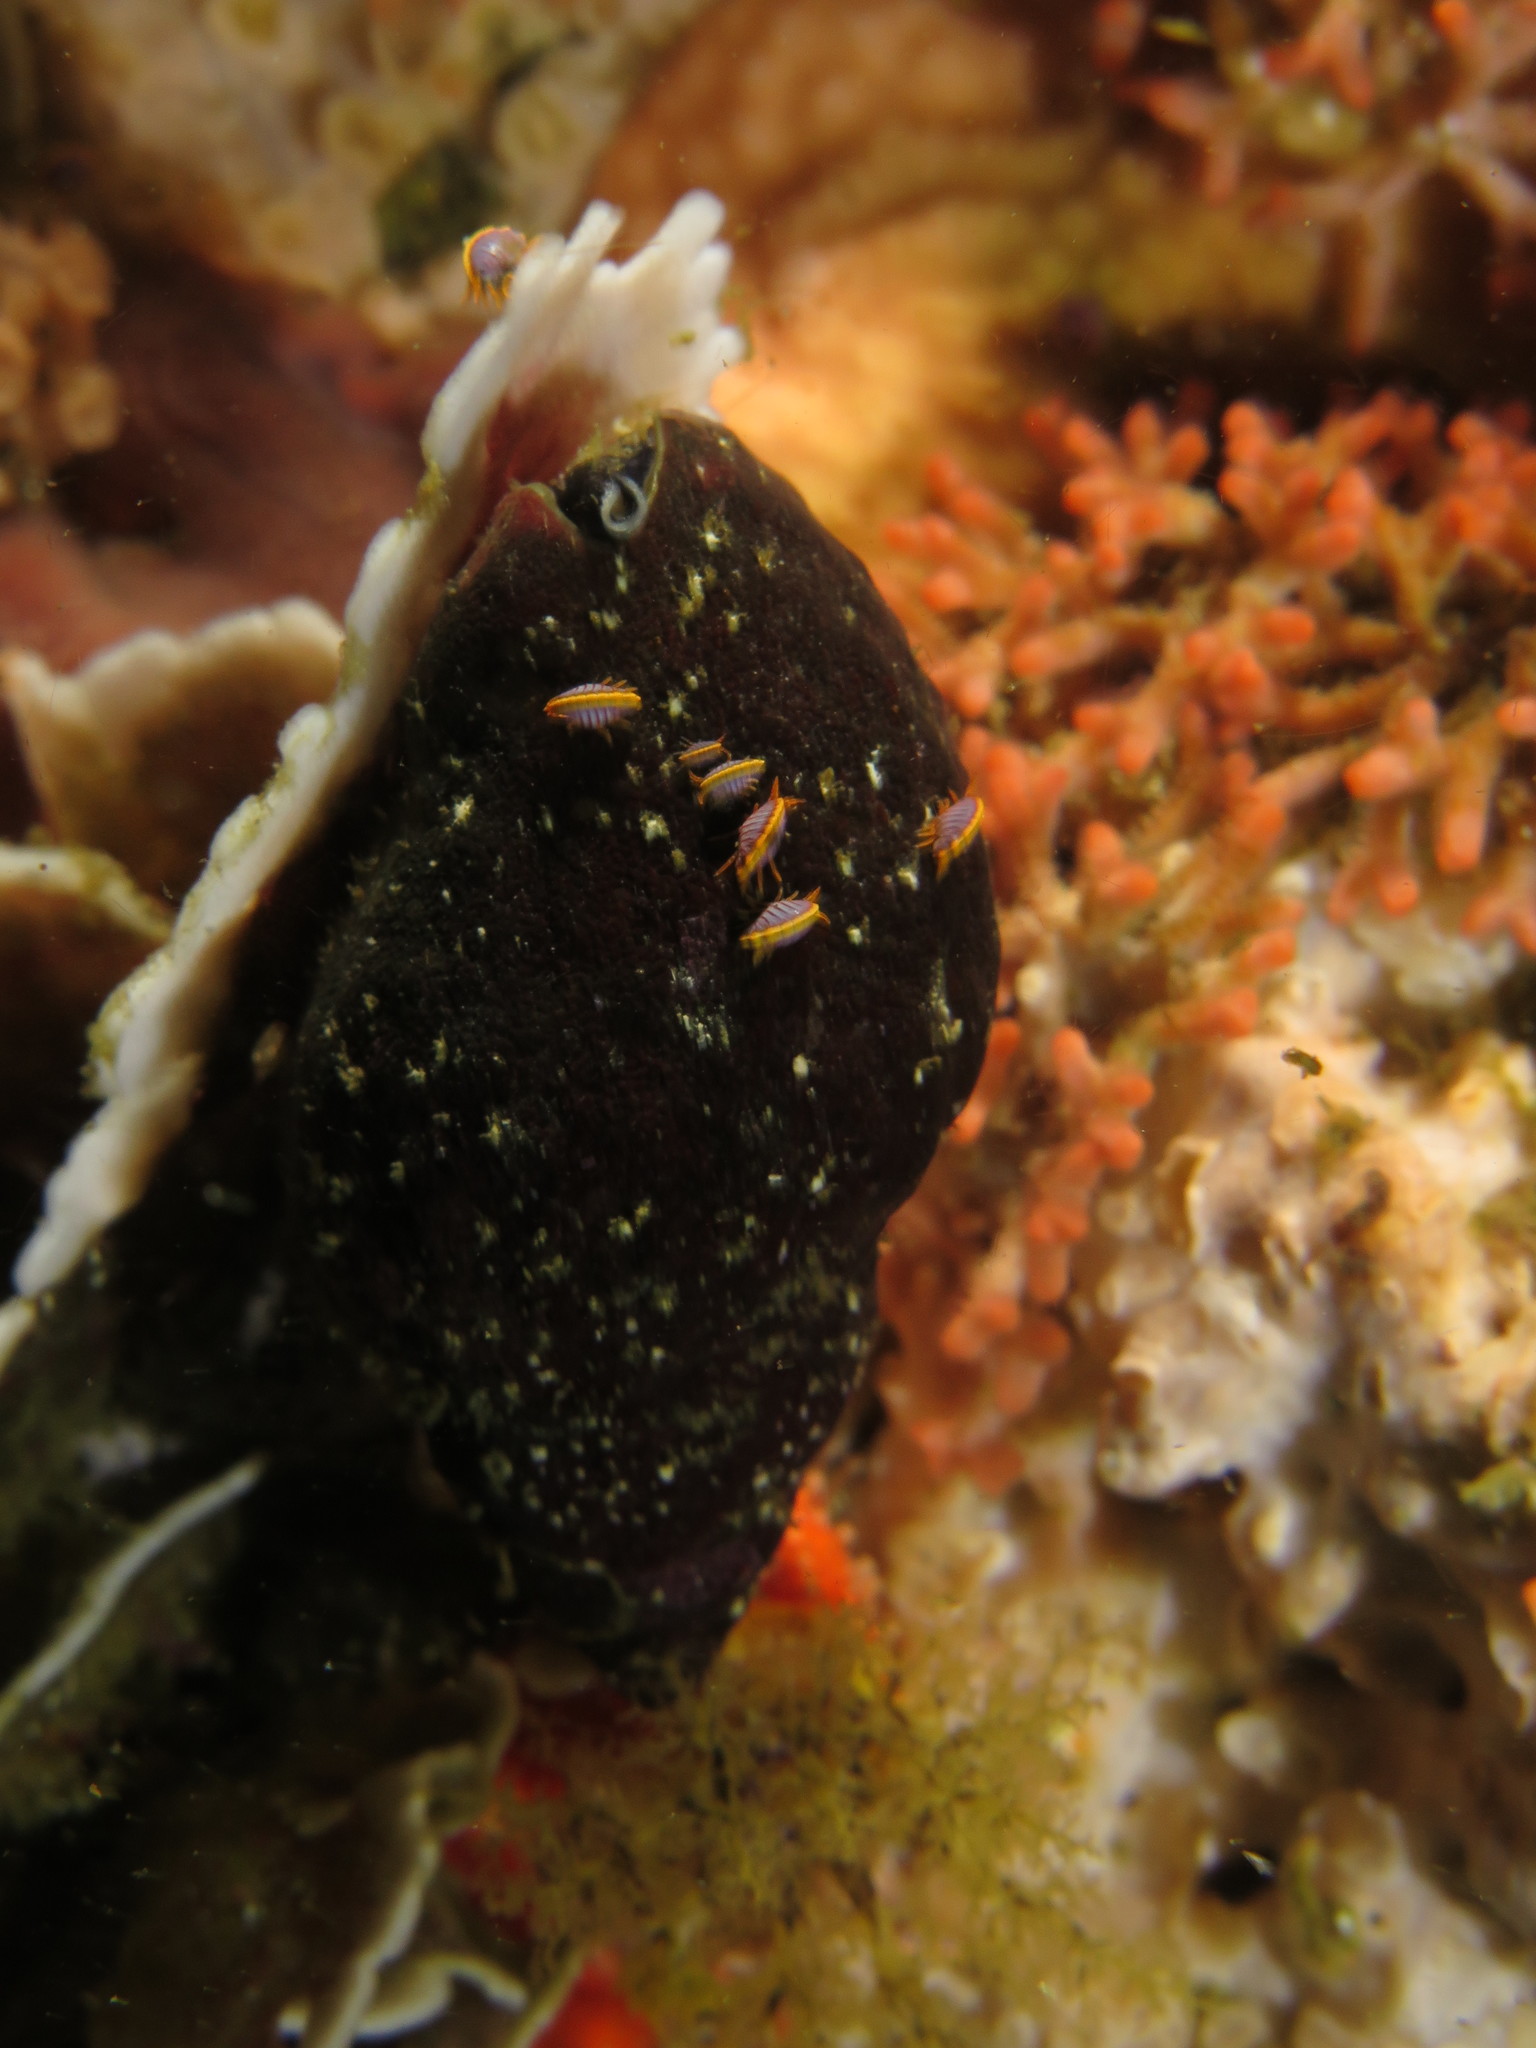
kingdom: Animalia
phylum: Mollusca
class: Gastropoda
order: Neogastropoda
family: Buccinidae
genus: Burnupena
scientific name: Burnupena papyracea
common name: Papery burnupena
